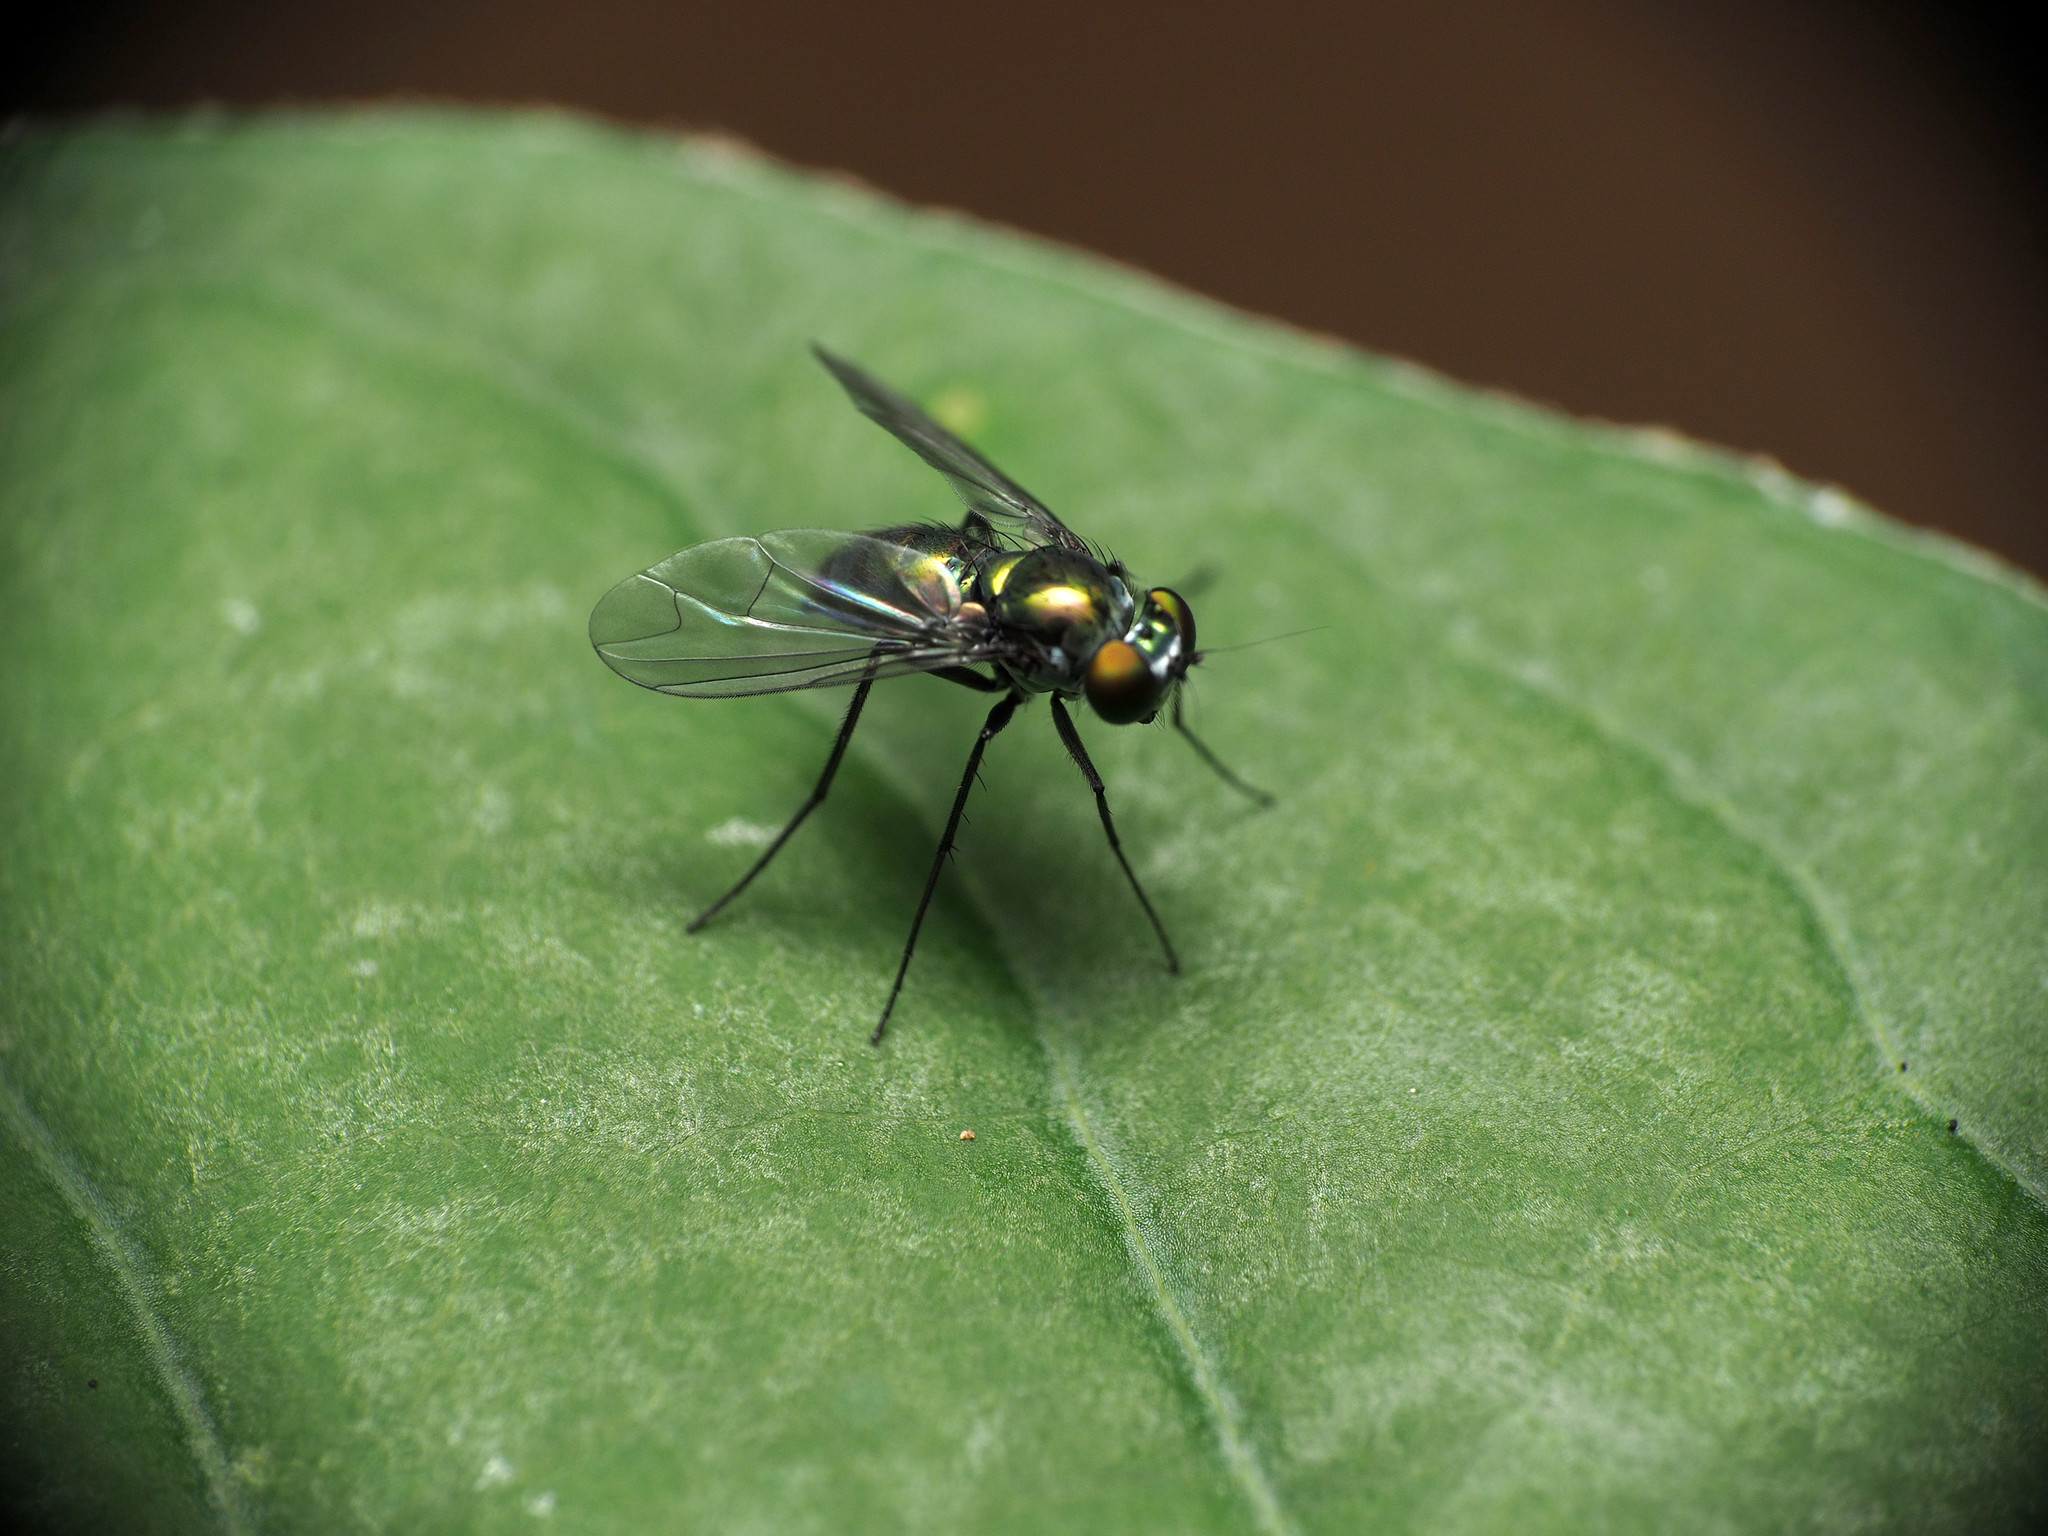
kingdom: Animalia
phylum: Arthropoda
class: Insecta
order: Diptera
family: Dolichopodidae
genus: Condylostylus
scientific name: Condylostylus patibulatus
